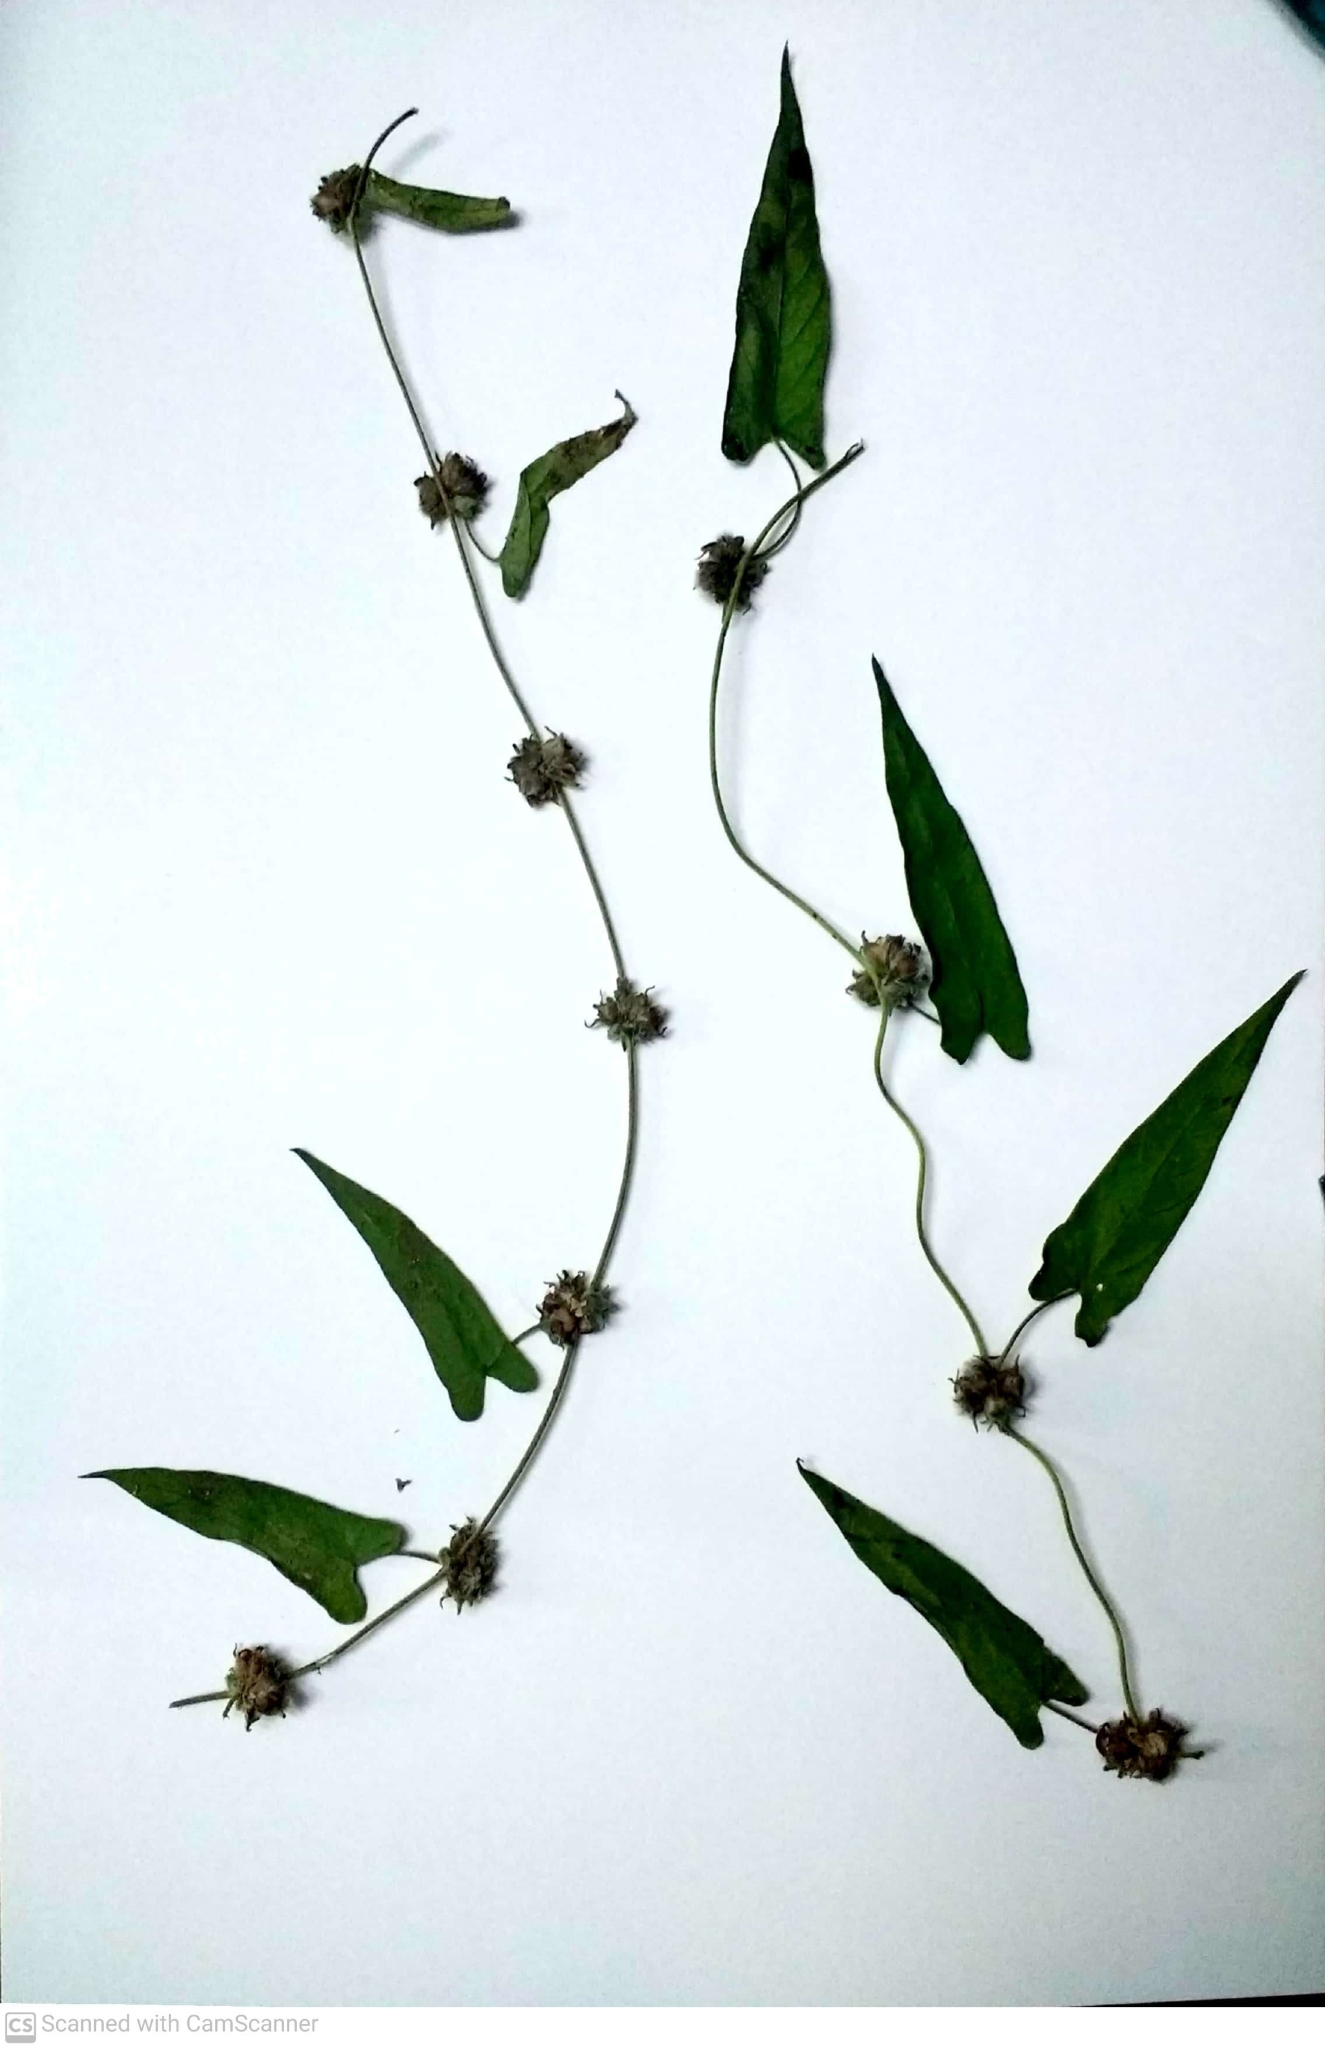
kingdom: Plantae
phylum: Tracheophyta
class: Magnoliopsida
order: Solanales
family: Convolvulaceae
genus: Ipomoea
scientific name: Ipomoea eriocarpa
